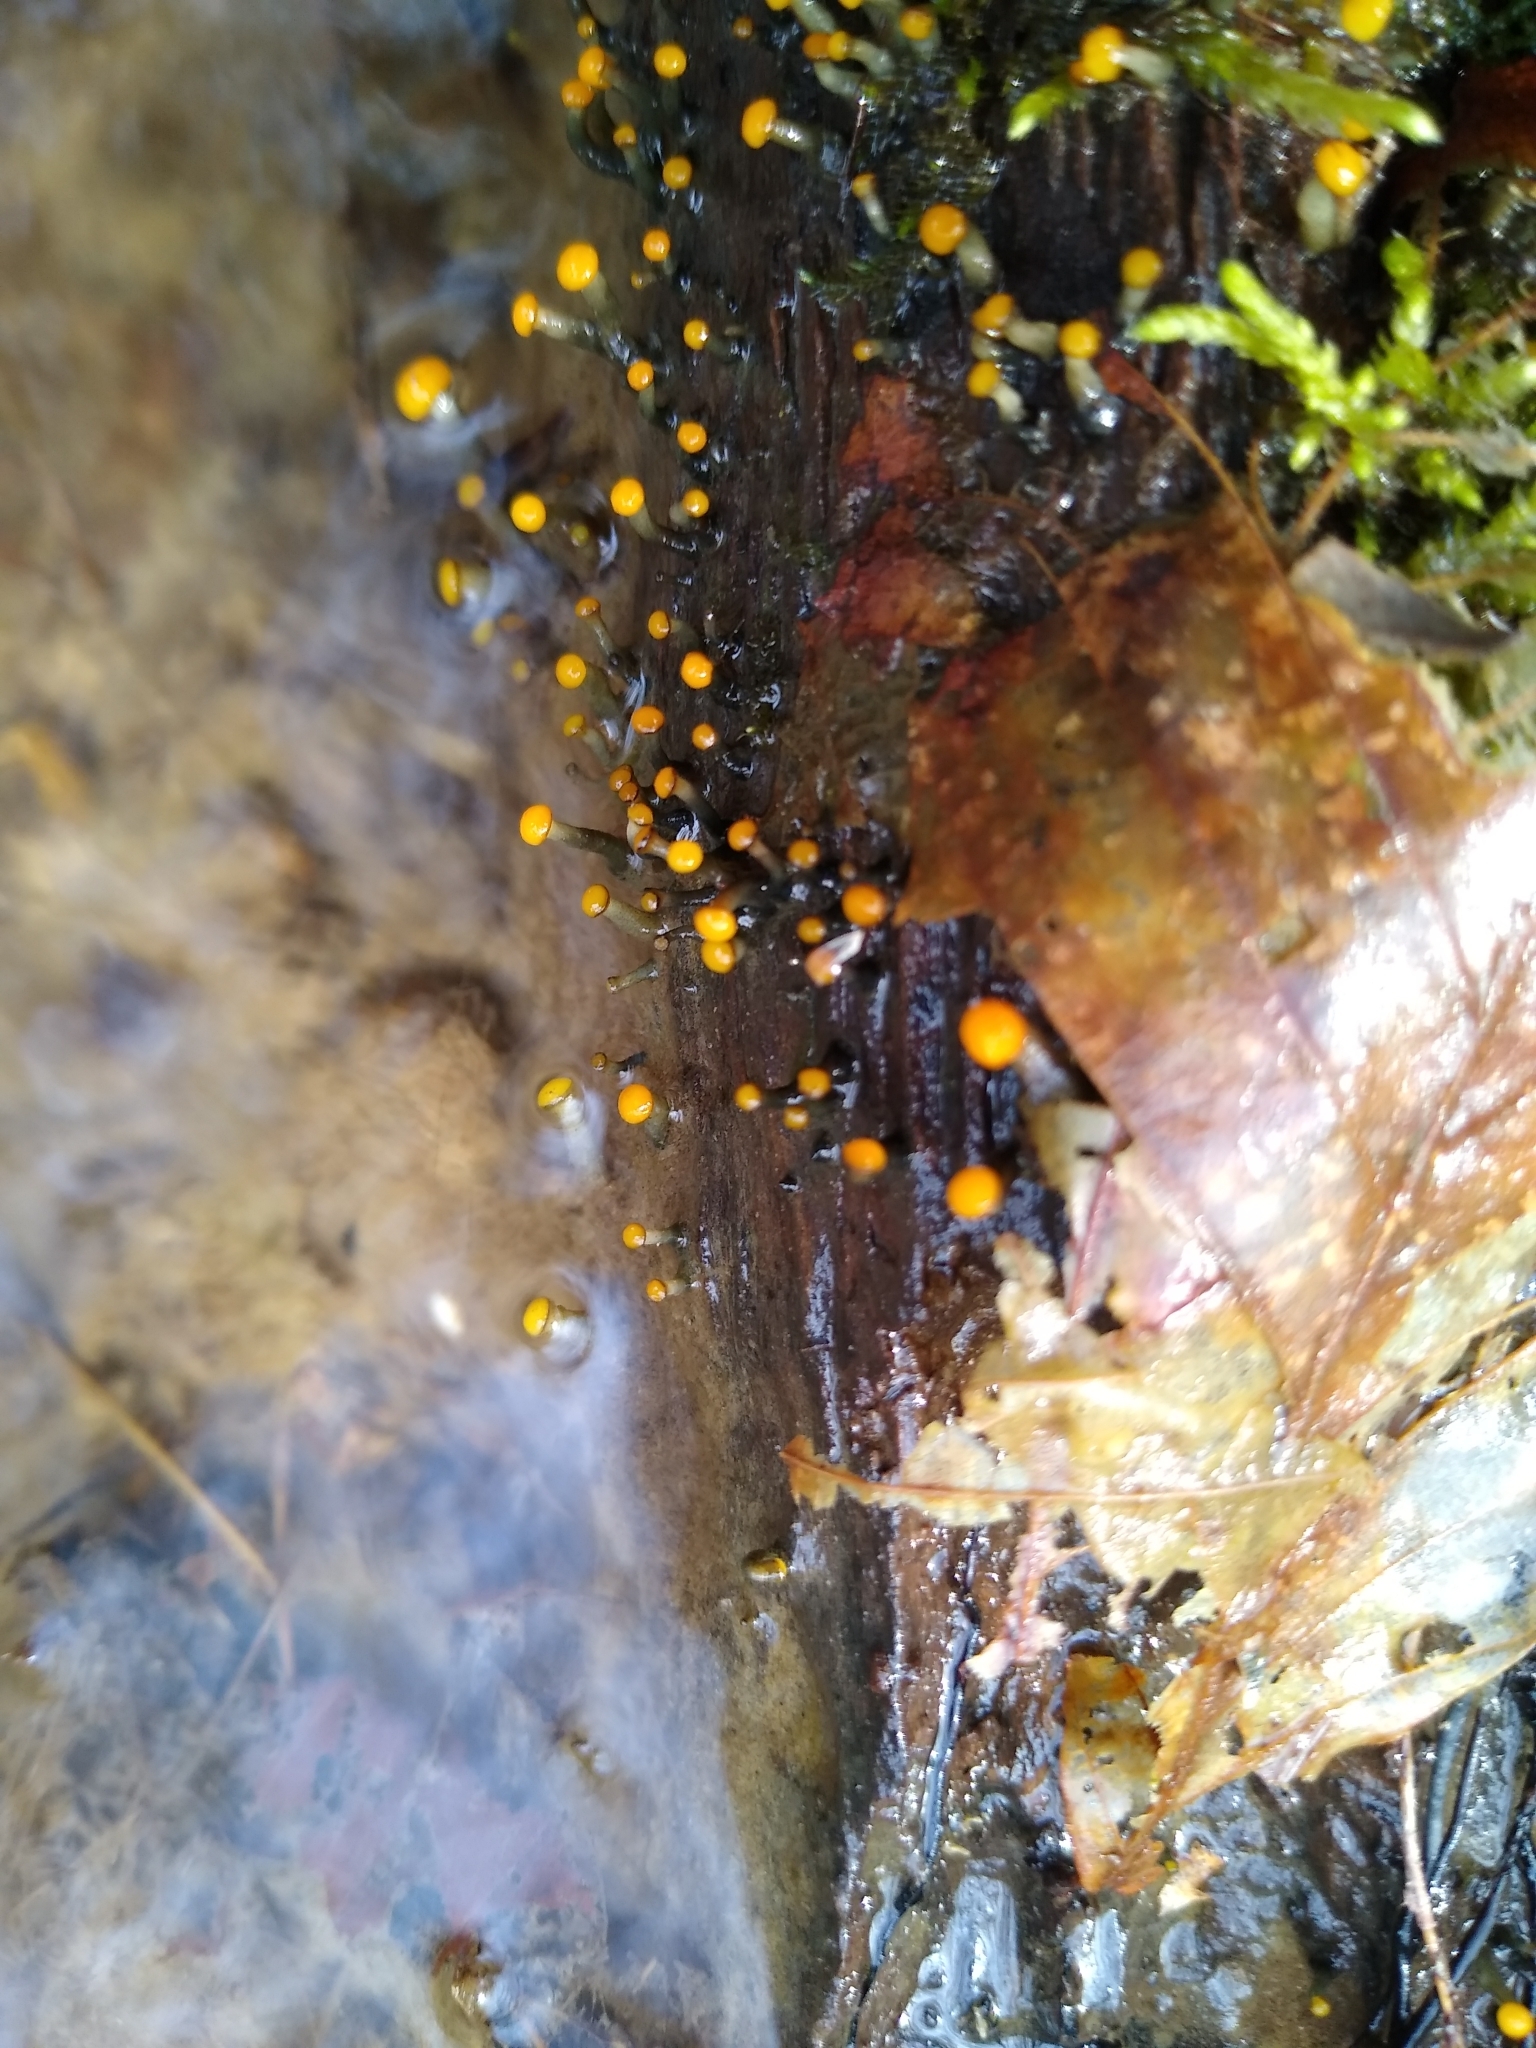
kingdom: Fungi
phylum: Ascomycota
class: Leotiomycetes
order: Helotiales
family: Vibrisseaceae
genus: Vibrissea
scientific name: Vibrissea truncorum
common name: Stream beacon
